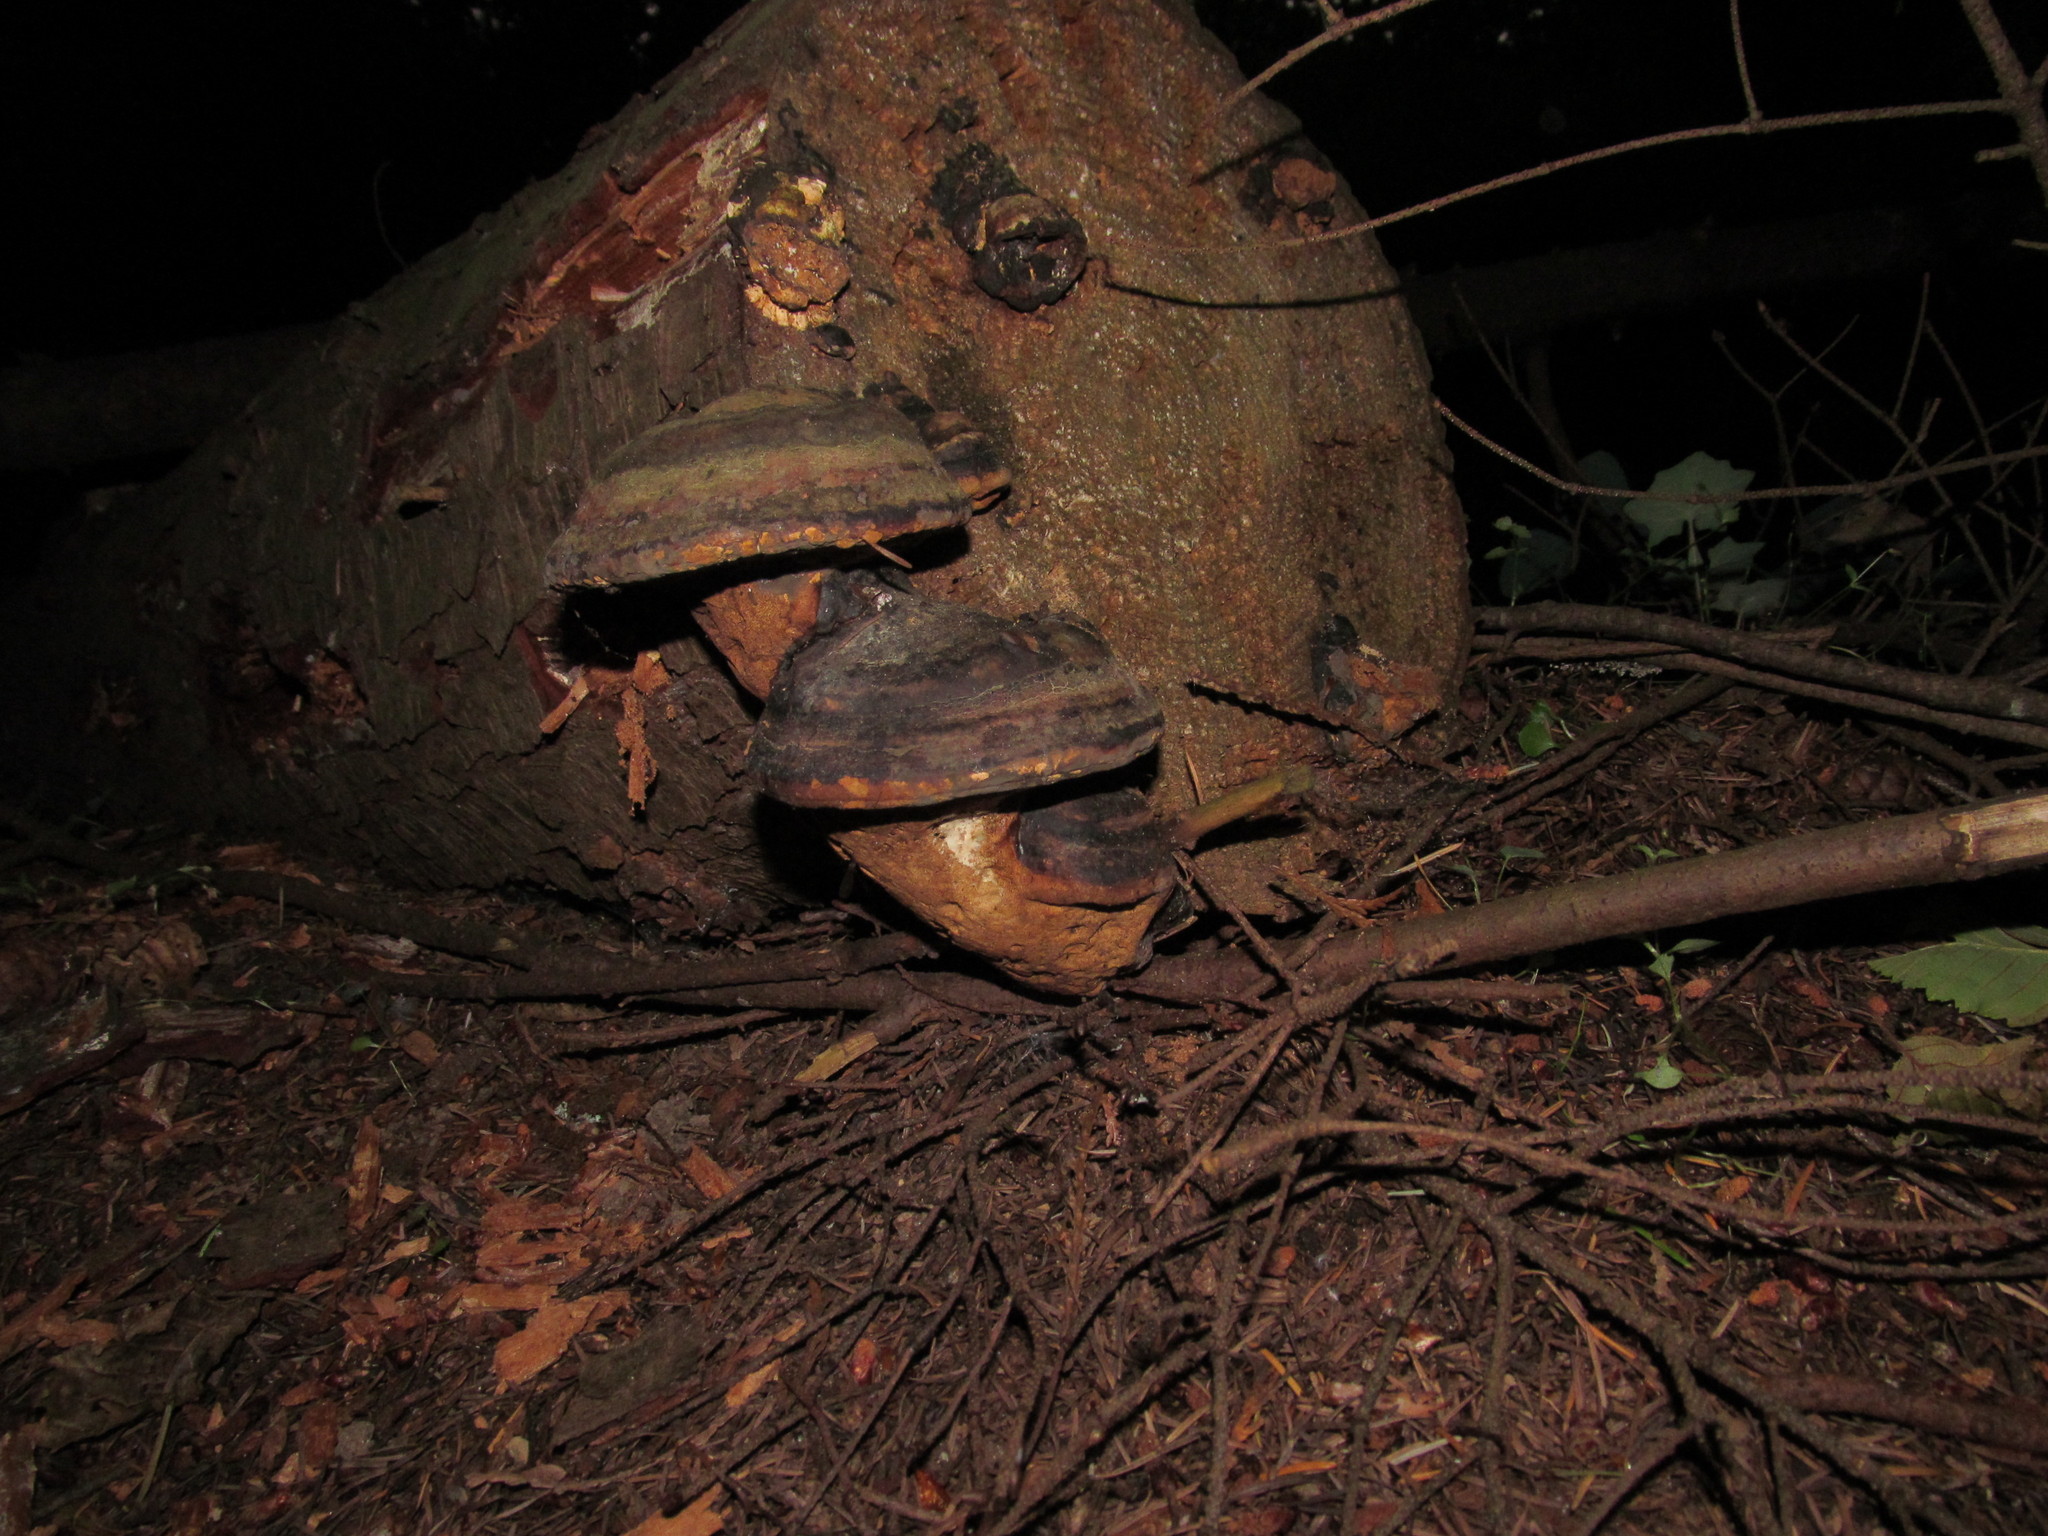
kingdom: Fungi
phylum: Basidiomycota
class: Agaricomycetes
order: Polyporales
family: Fomitopsidaceae
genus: Fomitopsis
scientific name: Fomitopsis mounceae
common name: Northern red belt
